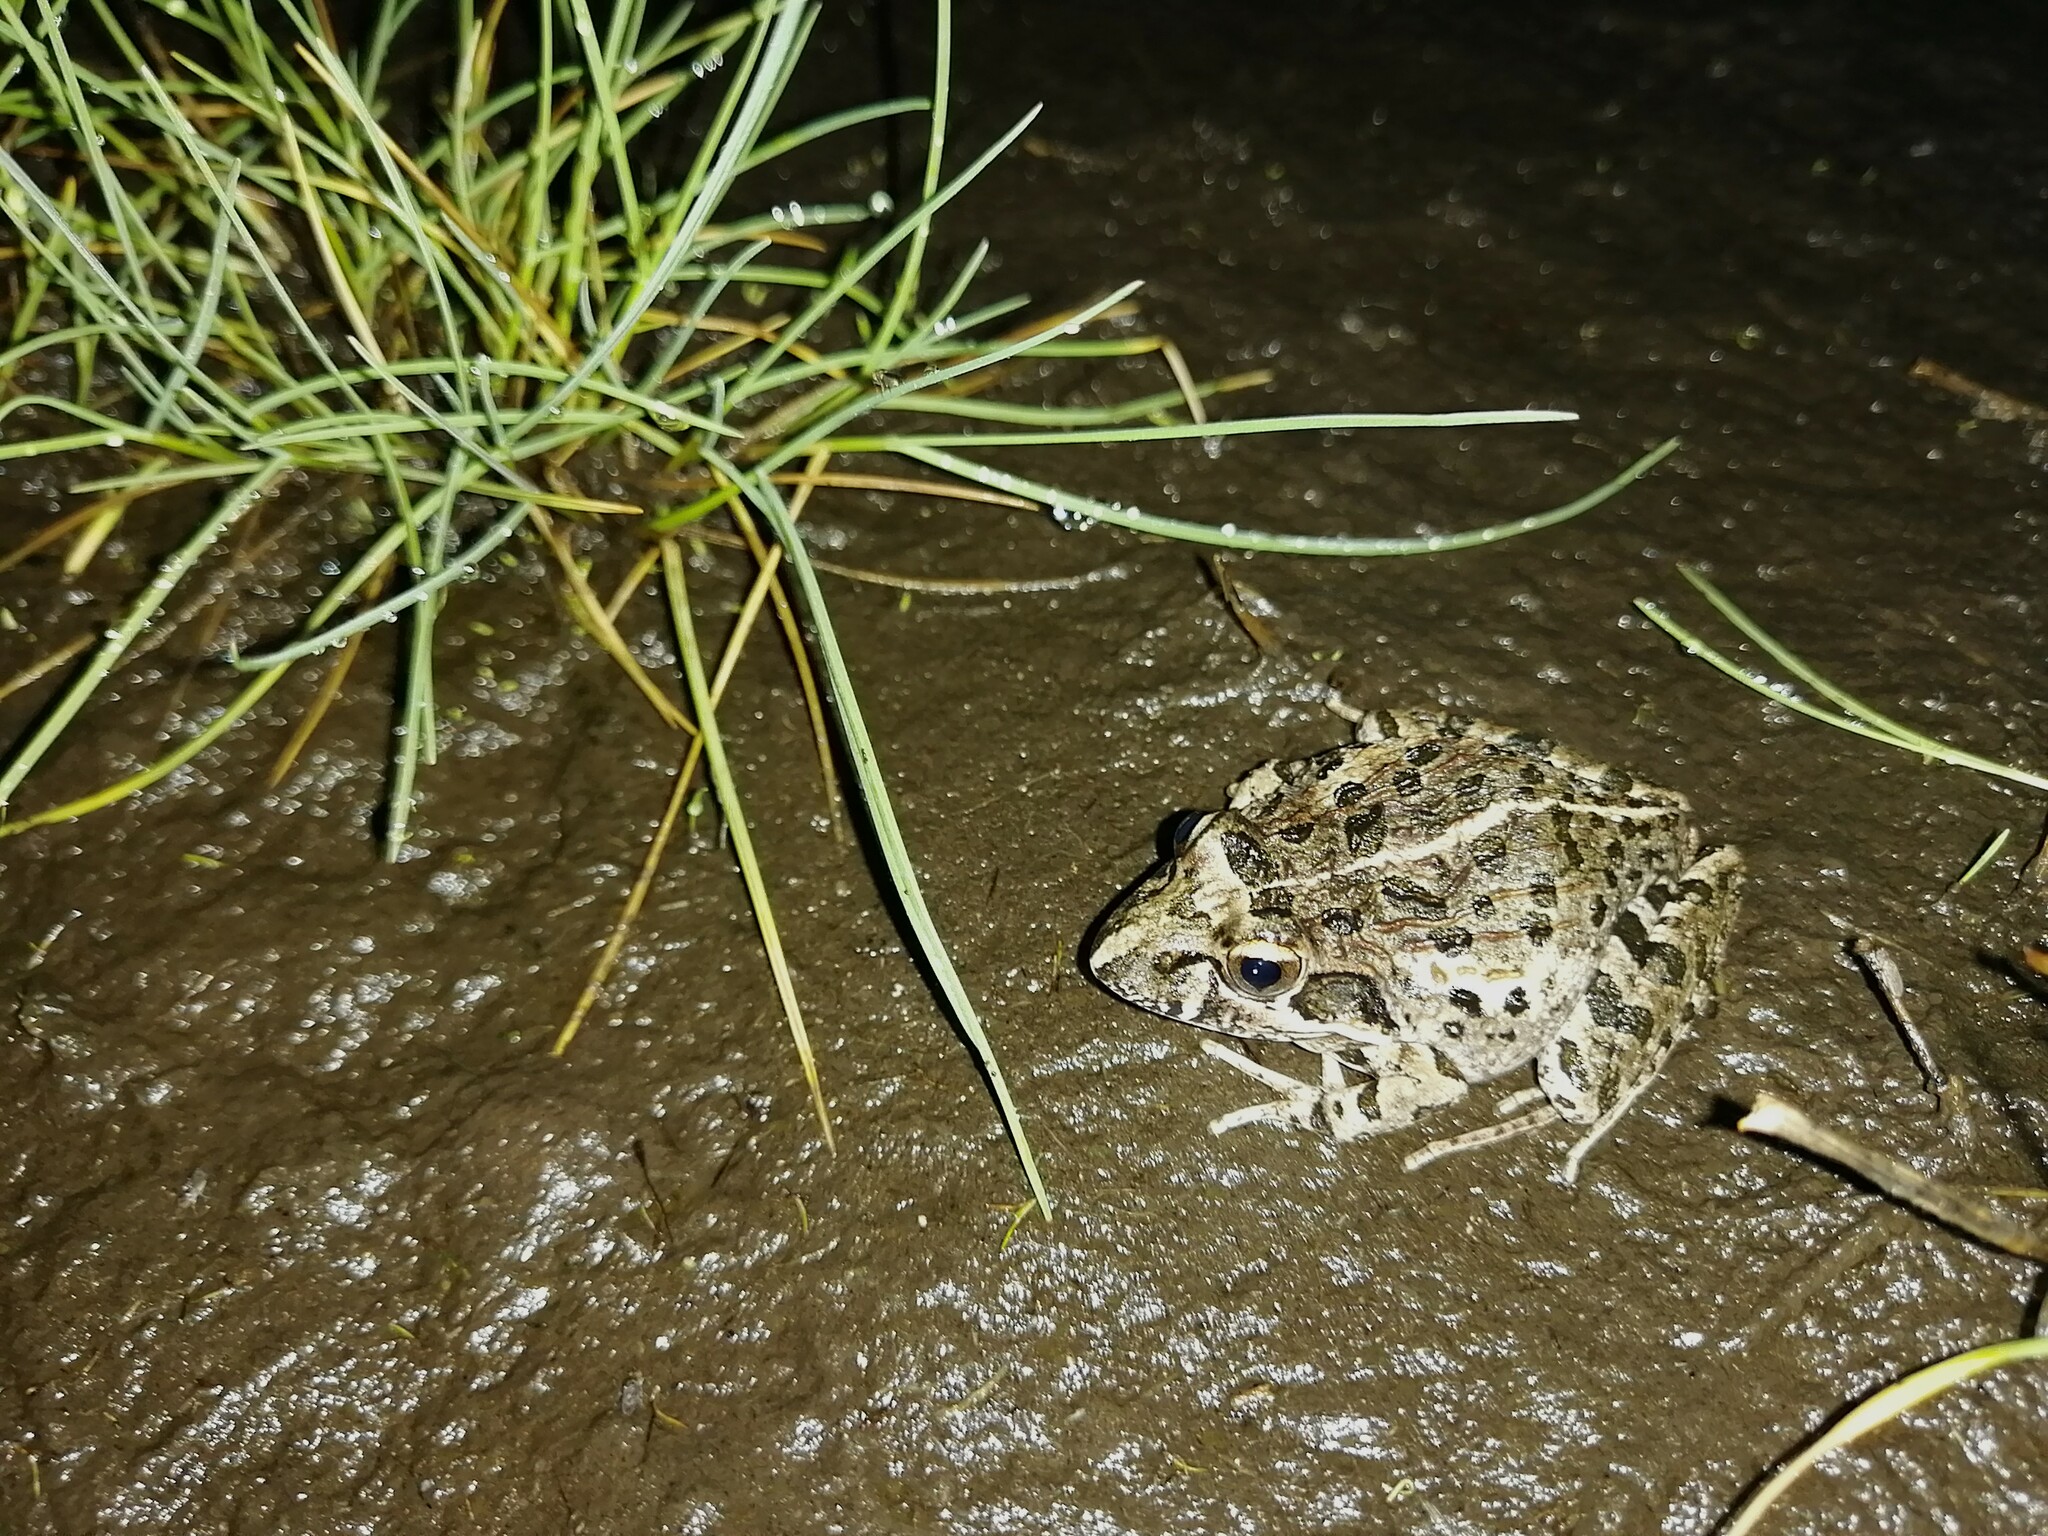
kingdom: Animalia
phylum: Chordata
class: Amphibia
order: Anura
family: Pyxicephalidae
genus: Strongylopus
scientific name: Strongylopus grayii
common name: Gray's stream frog
